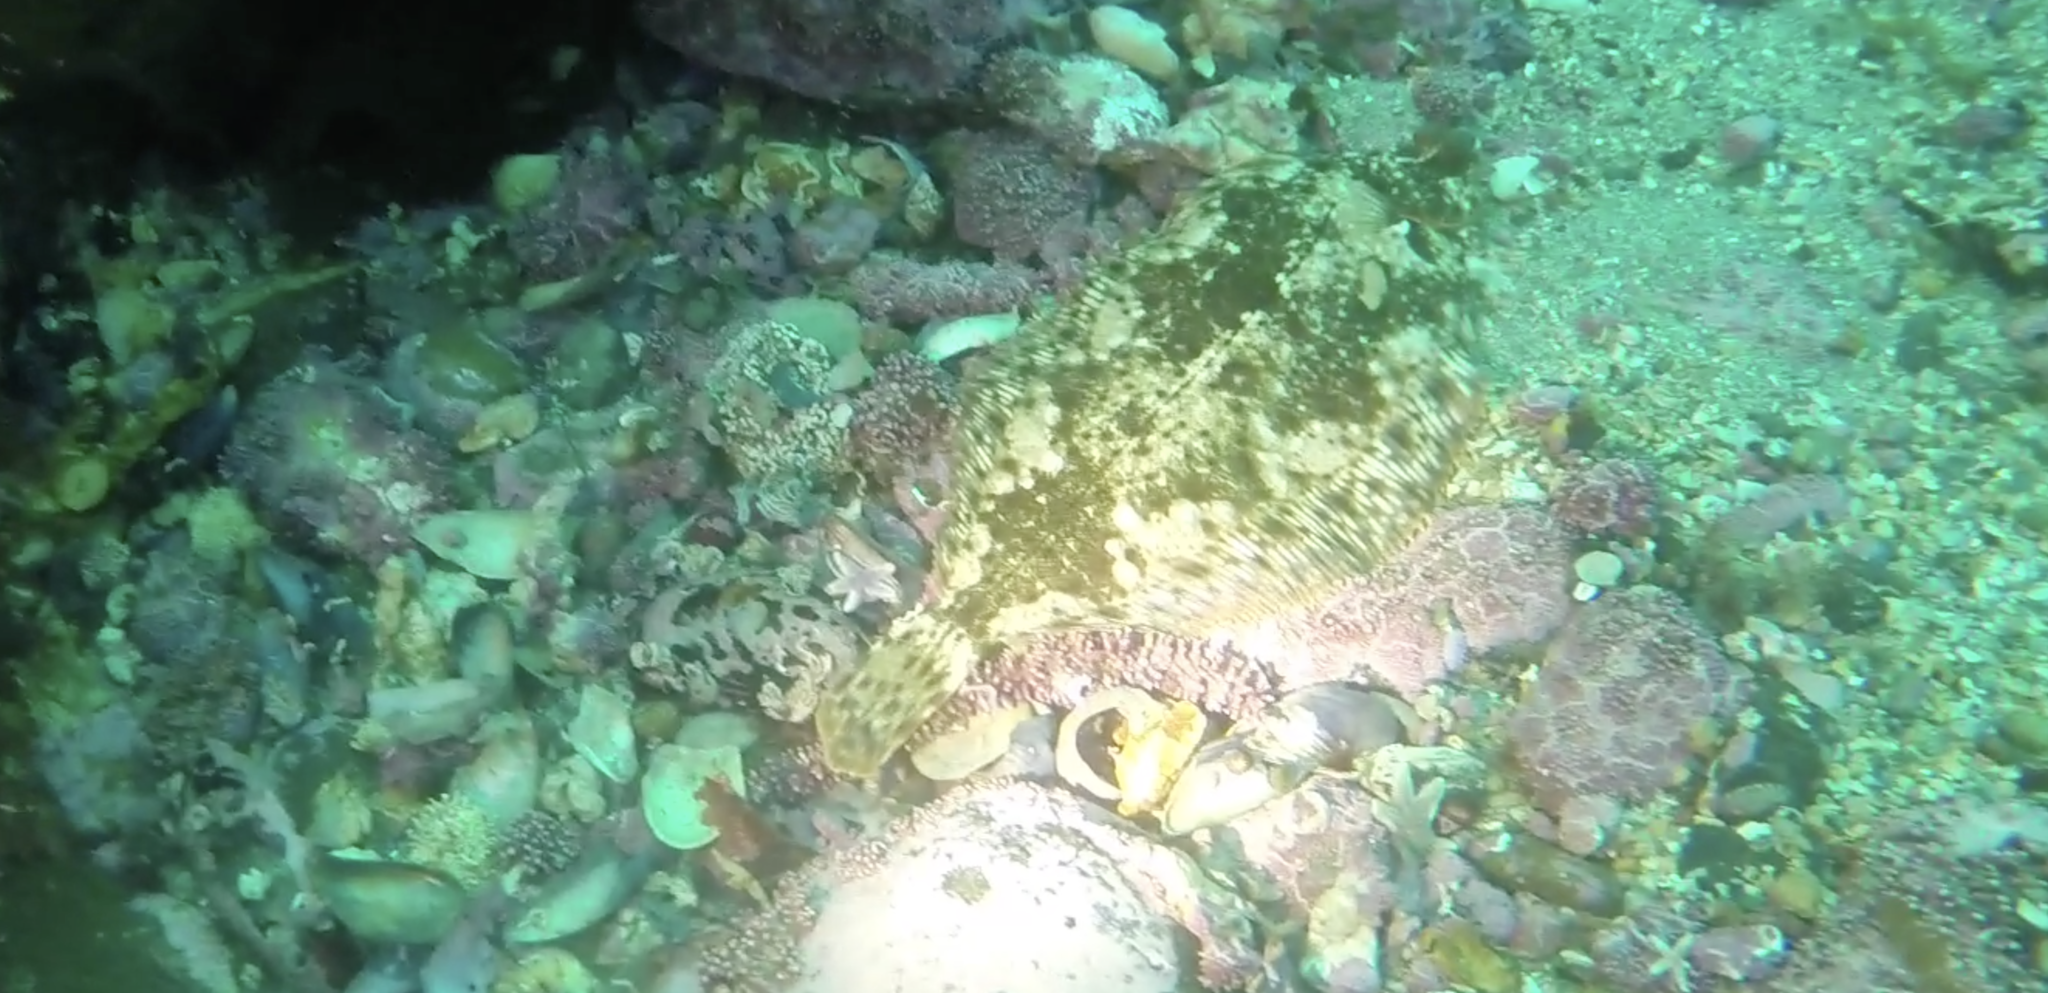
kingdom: Animalia
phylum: Chordata
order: Pleuronectiformes
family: Pleuronectidae
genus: Microstomus
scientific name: Microstomus kitt
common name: Lemon sole
